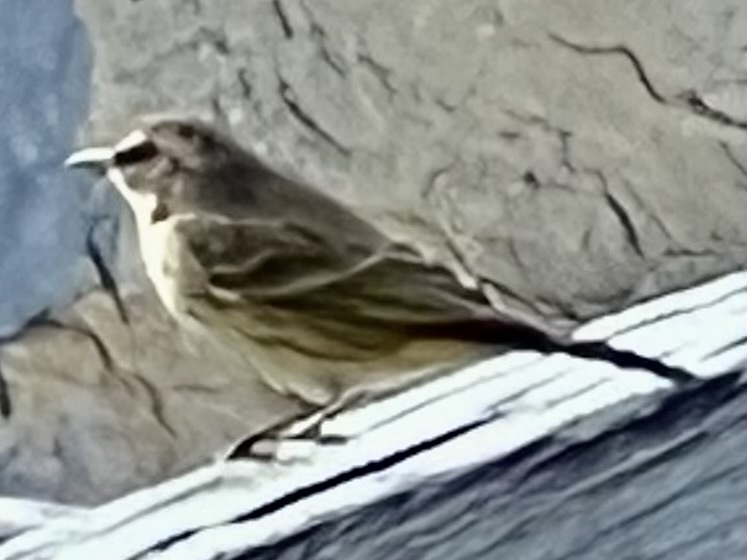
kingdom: Animalia
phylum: Chordata
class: Aves
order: Passeriformes
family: Parulidae
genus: Setophaga
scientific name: Setophaga palmarum
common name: Palm warbler
